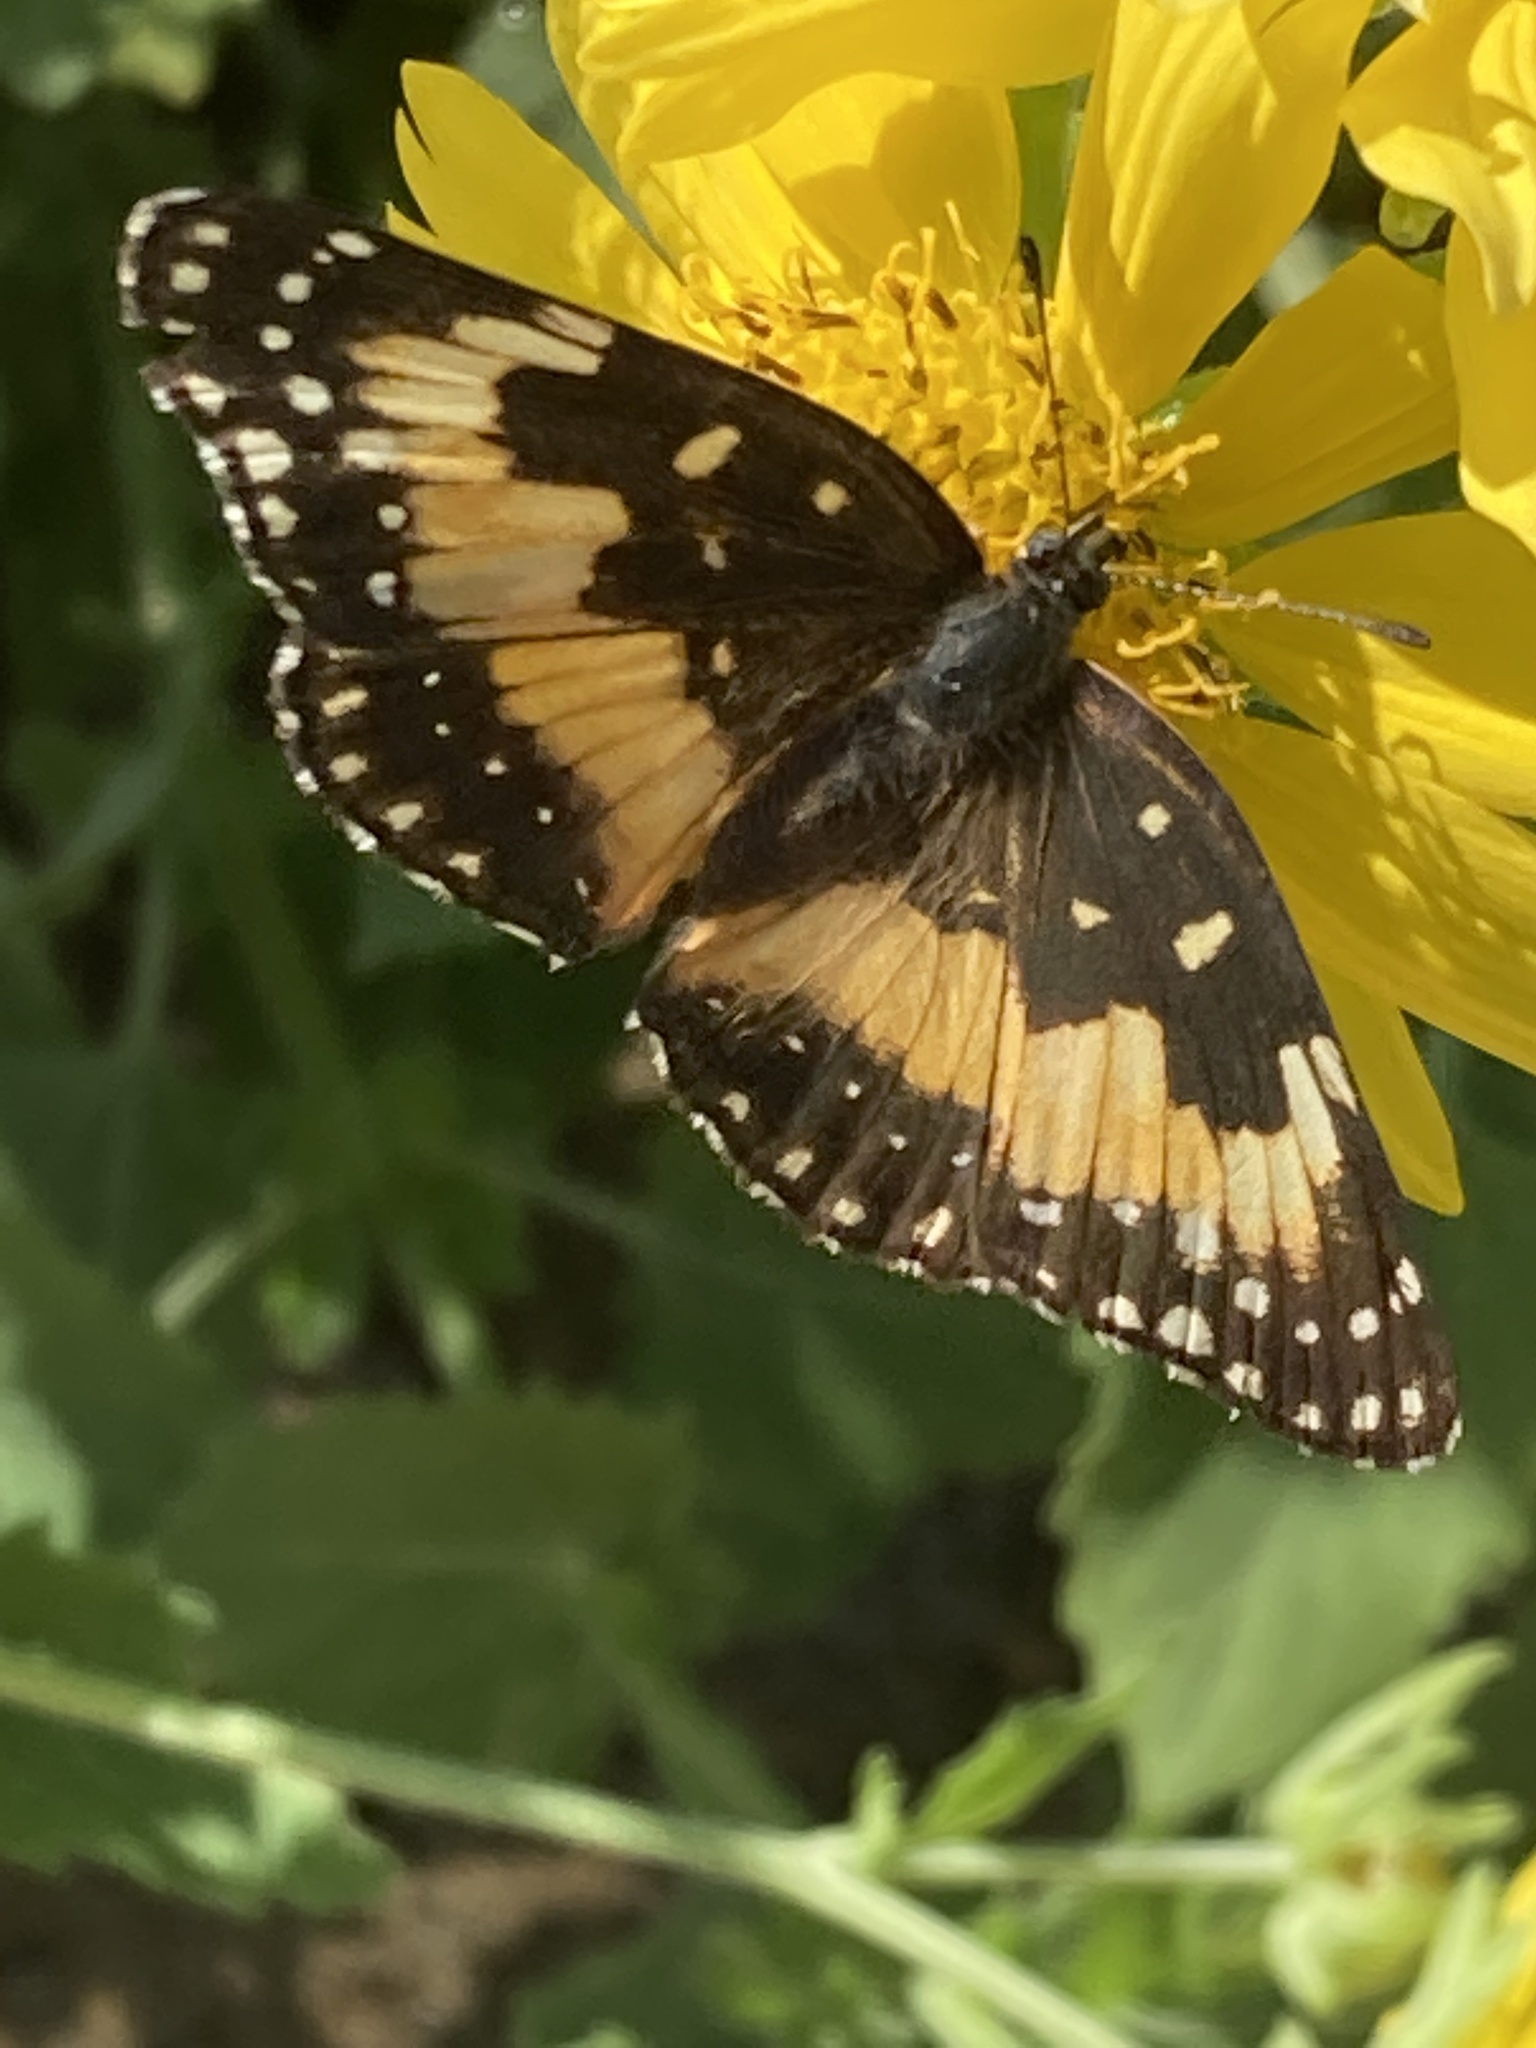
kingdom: Animalia
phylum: Arthropoda
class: Insecta
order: Lepidoptera
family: Nymphalidae
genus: Chlosyne
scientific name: Chlosyne lacinia
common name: Bordered patch
